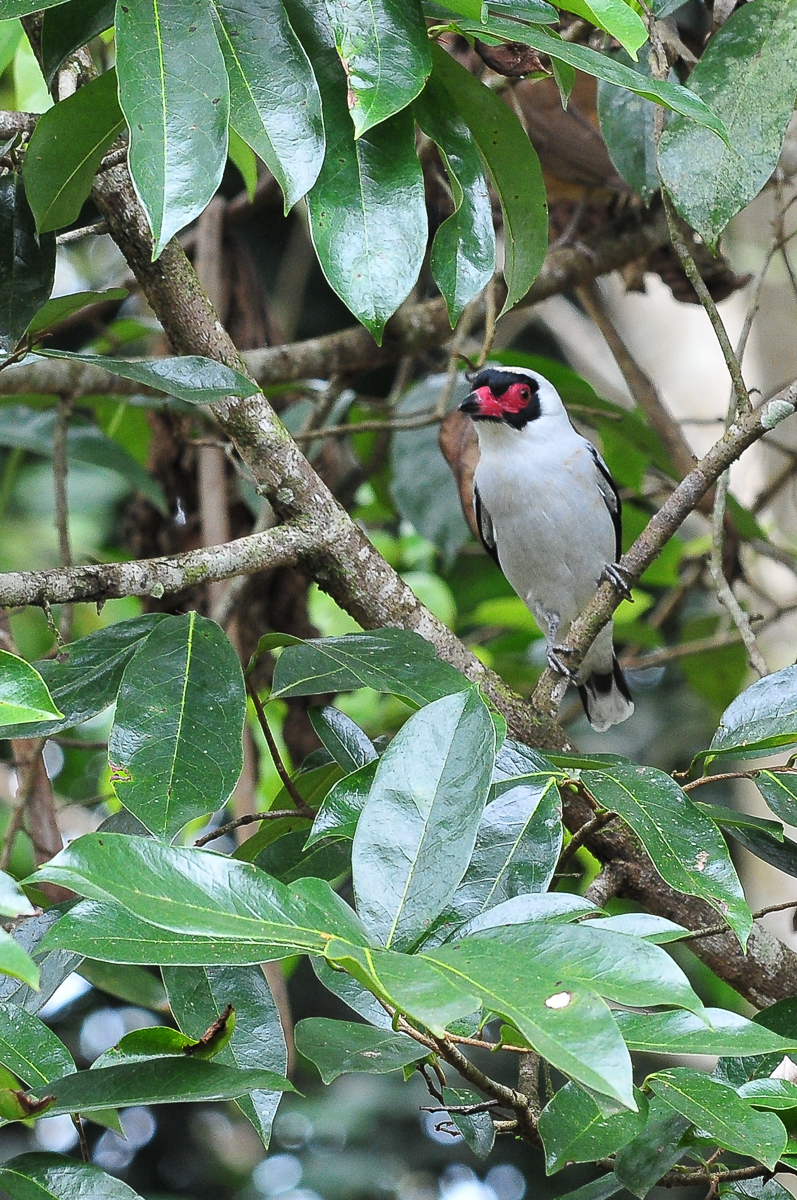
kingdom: Animalia
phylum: Chordata
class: Aves
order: Passeriformes
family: Cotingidae
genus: Tityra
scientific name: Tityra semifasciata
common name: Masked tityra
